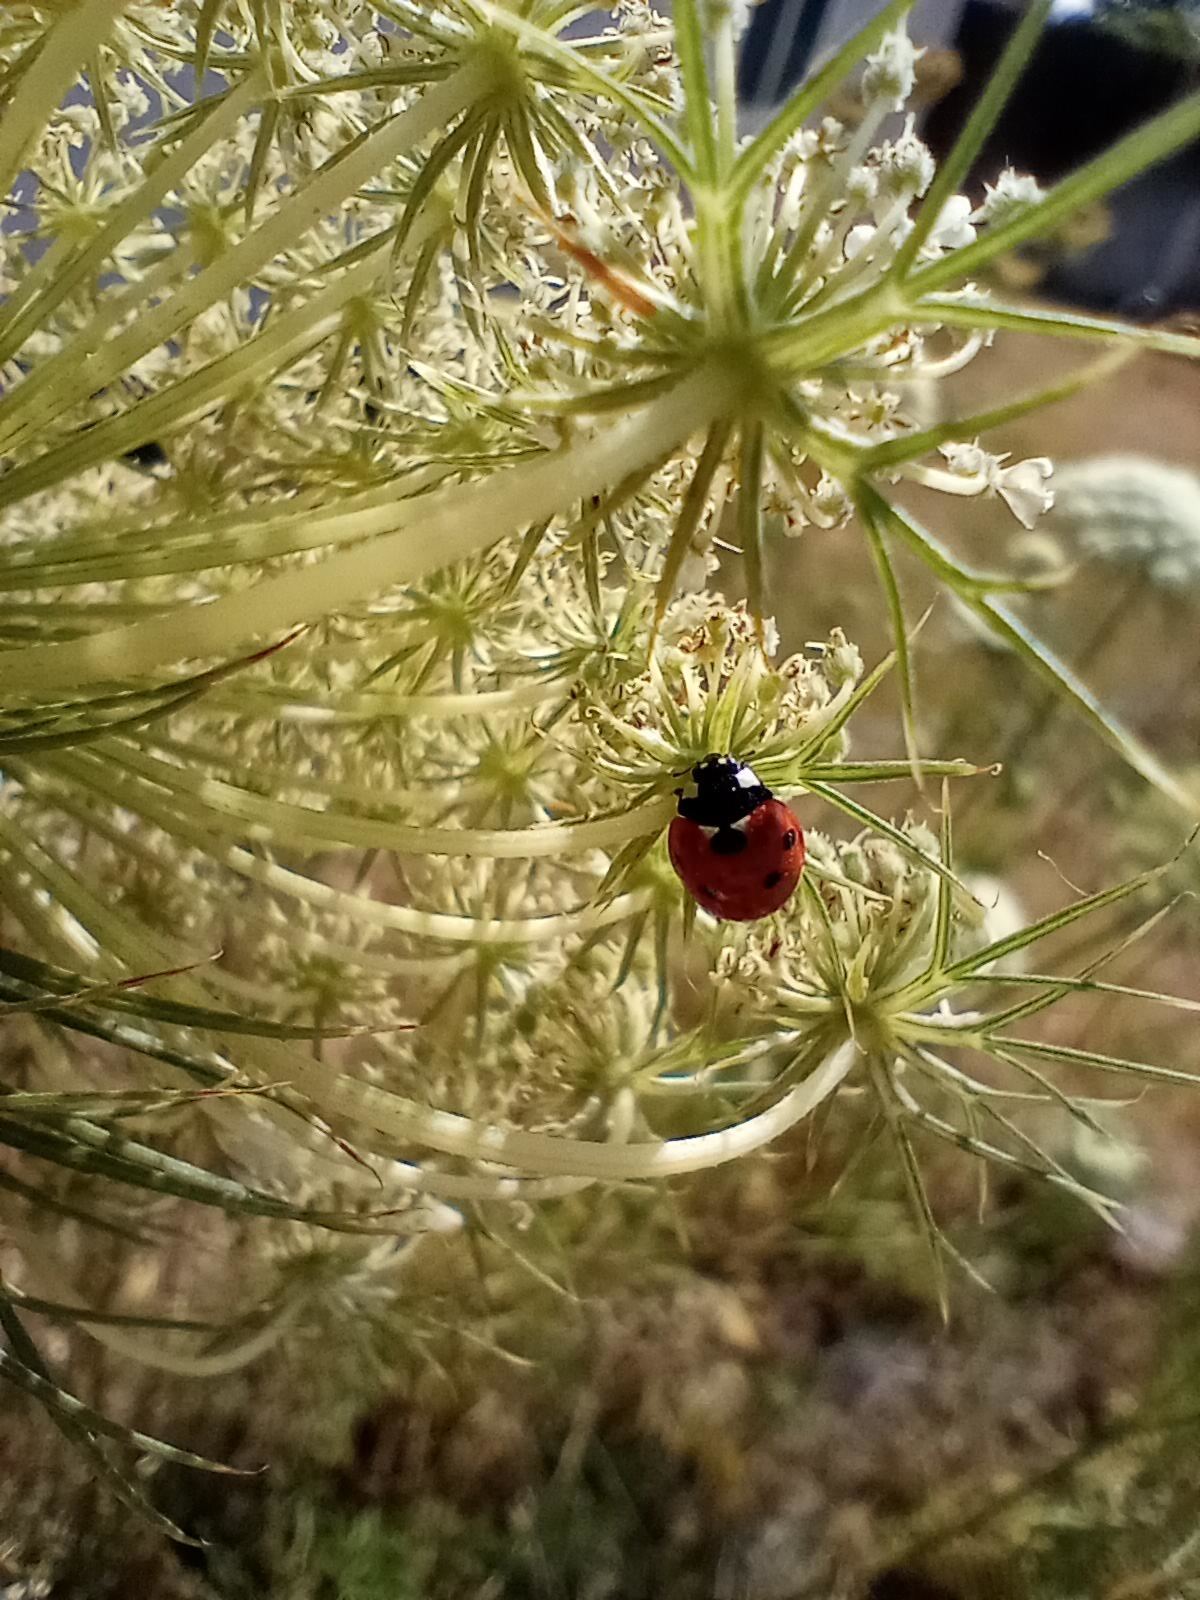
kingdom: Animalia
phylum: Arthropoda
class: Insecta
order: Coleoptera
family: Coccinellidae
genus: Coccinella
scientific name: Coccinella septempunctata
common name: Sevenspotted lady beetle
